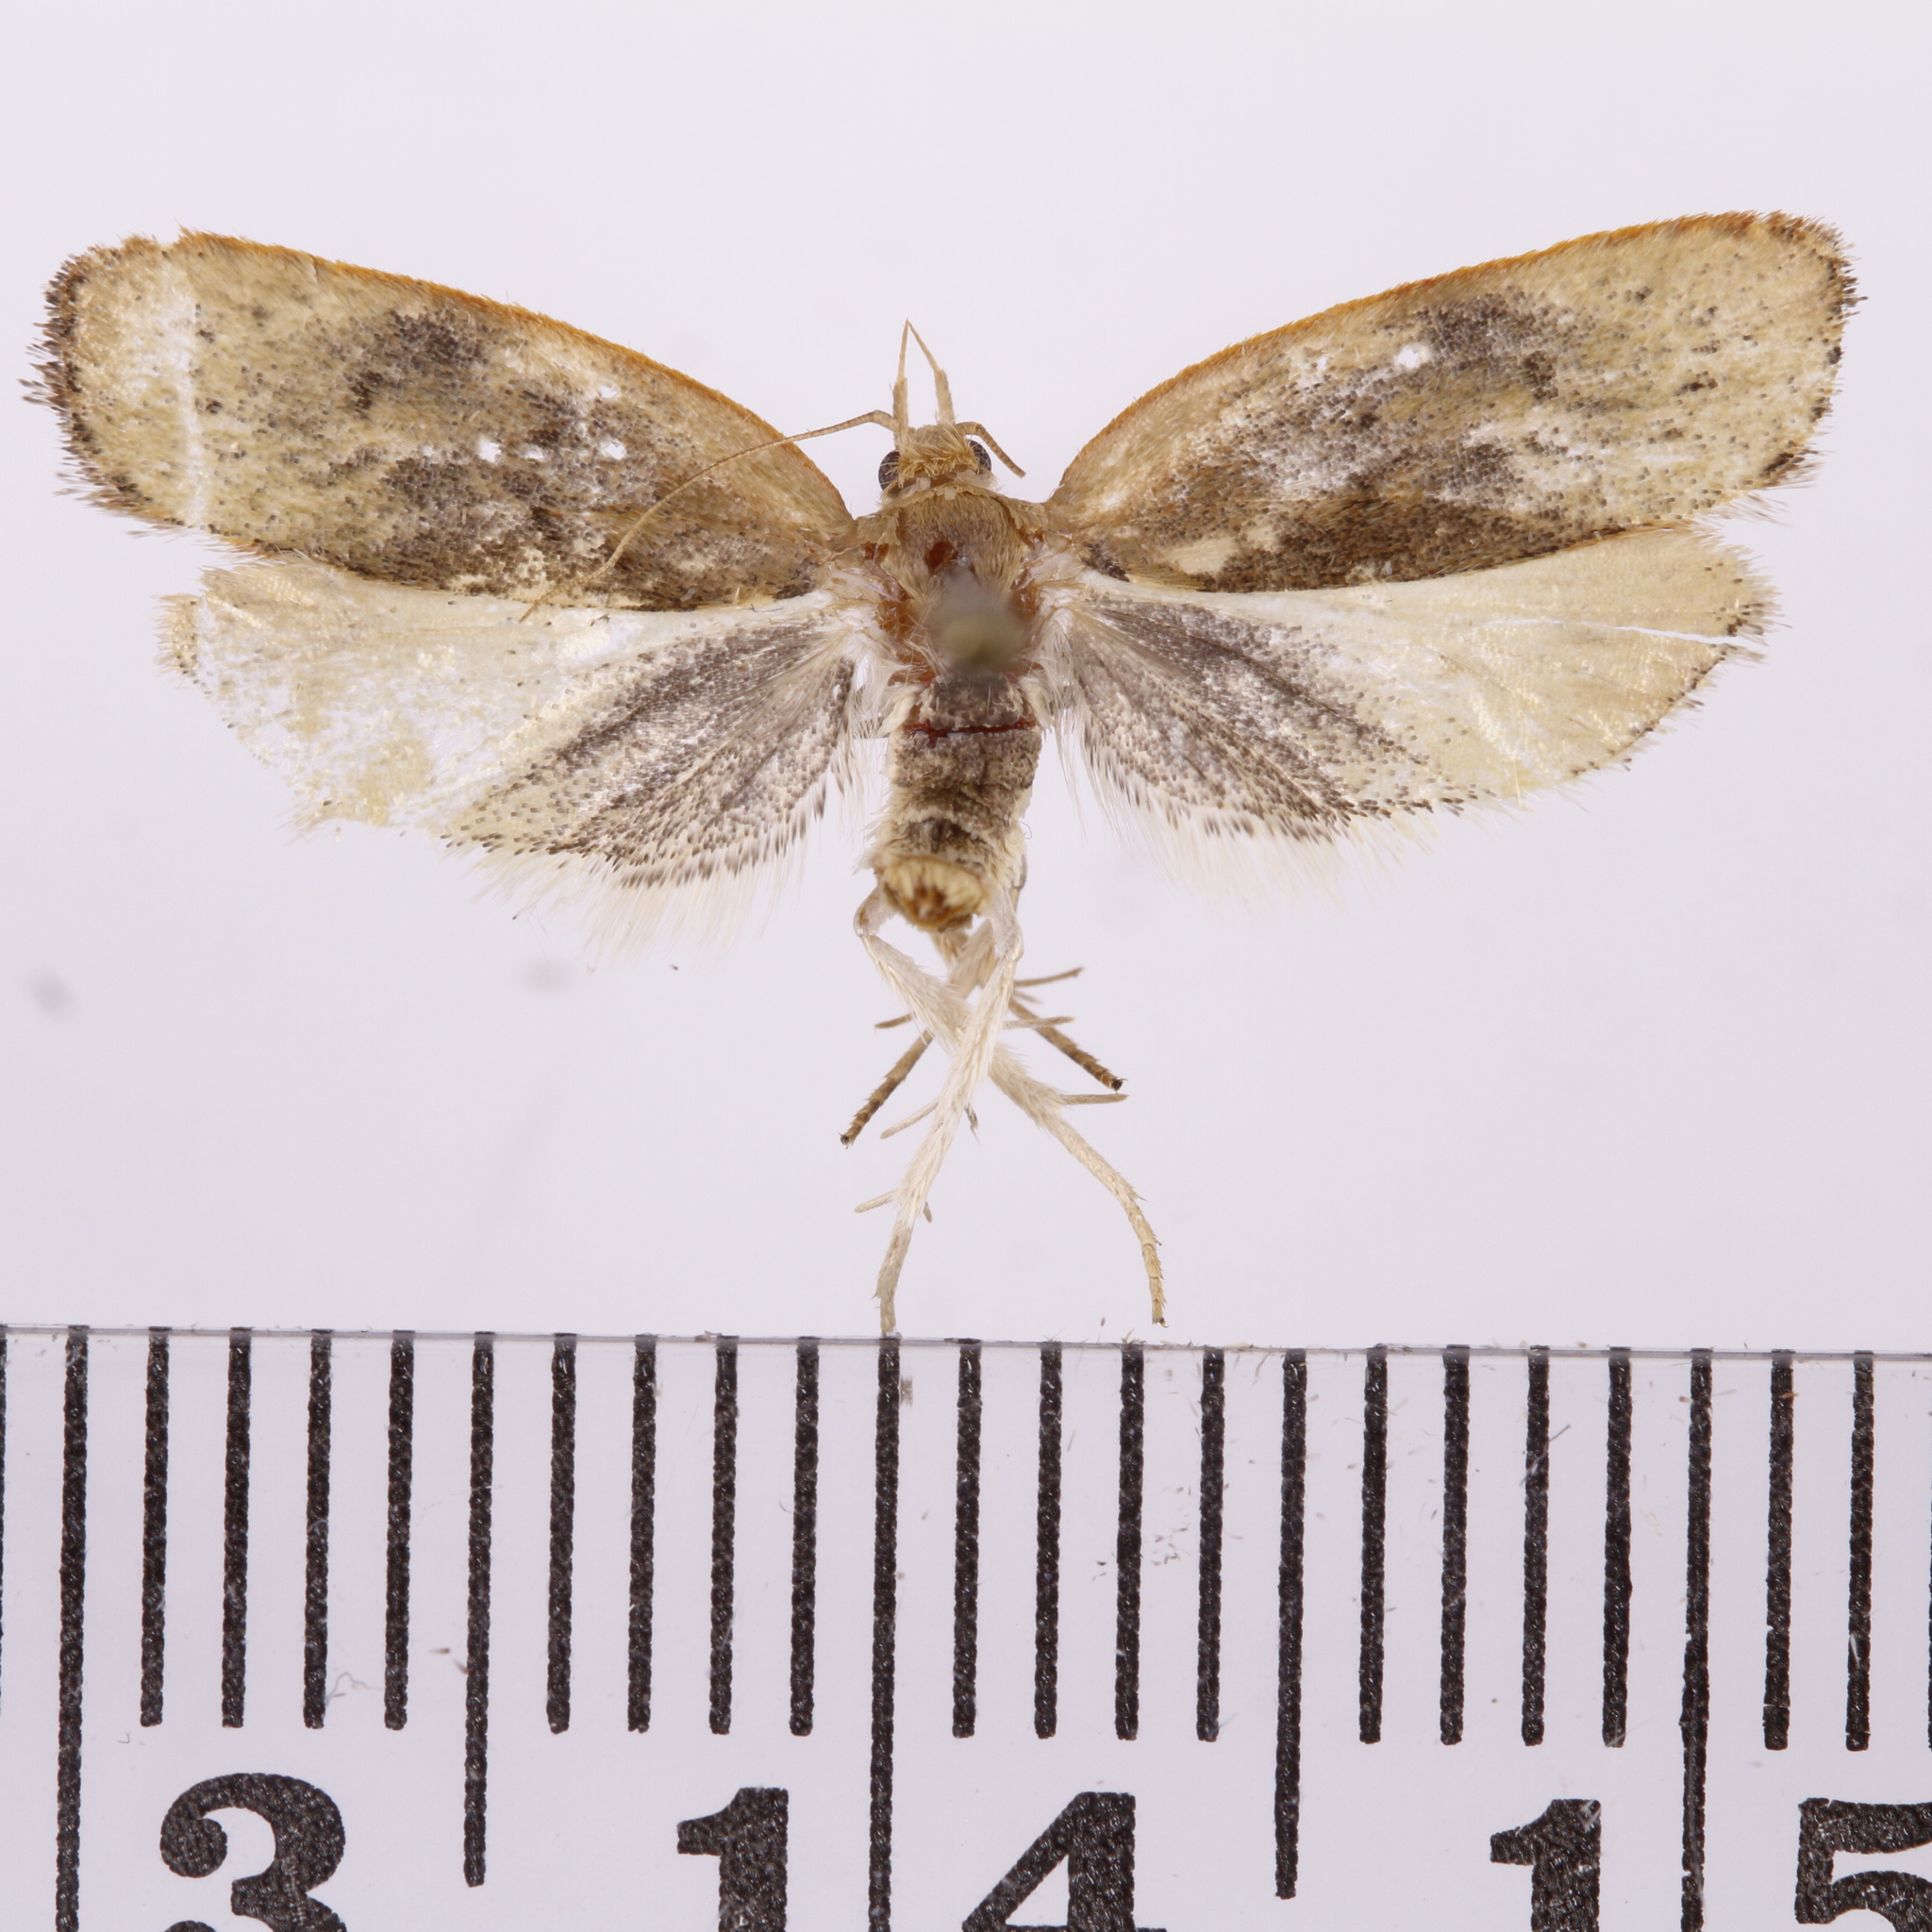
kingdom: Animalia
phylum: Arthropoda
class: Insecta
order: Lepidoptera
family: Depressariidae
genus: Phaeosaces
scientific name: Phaeosaces coarctatella
